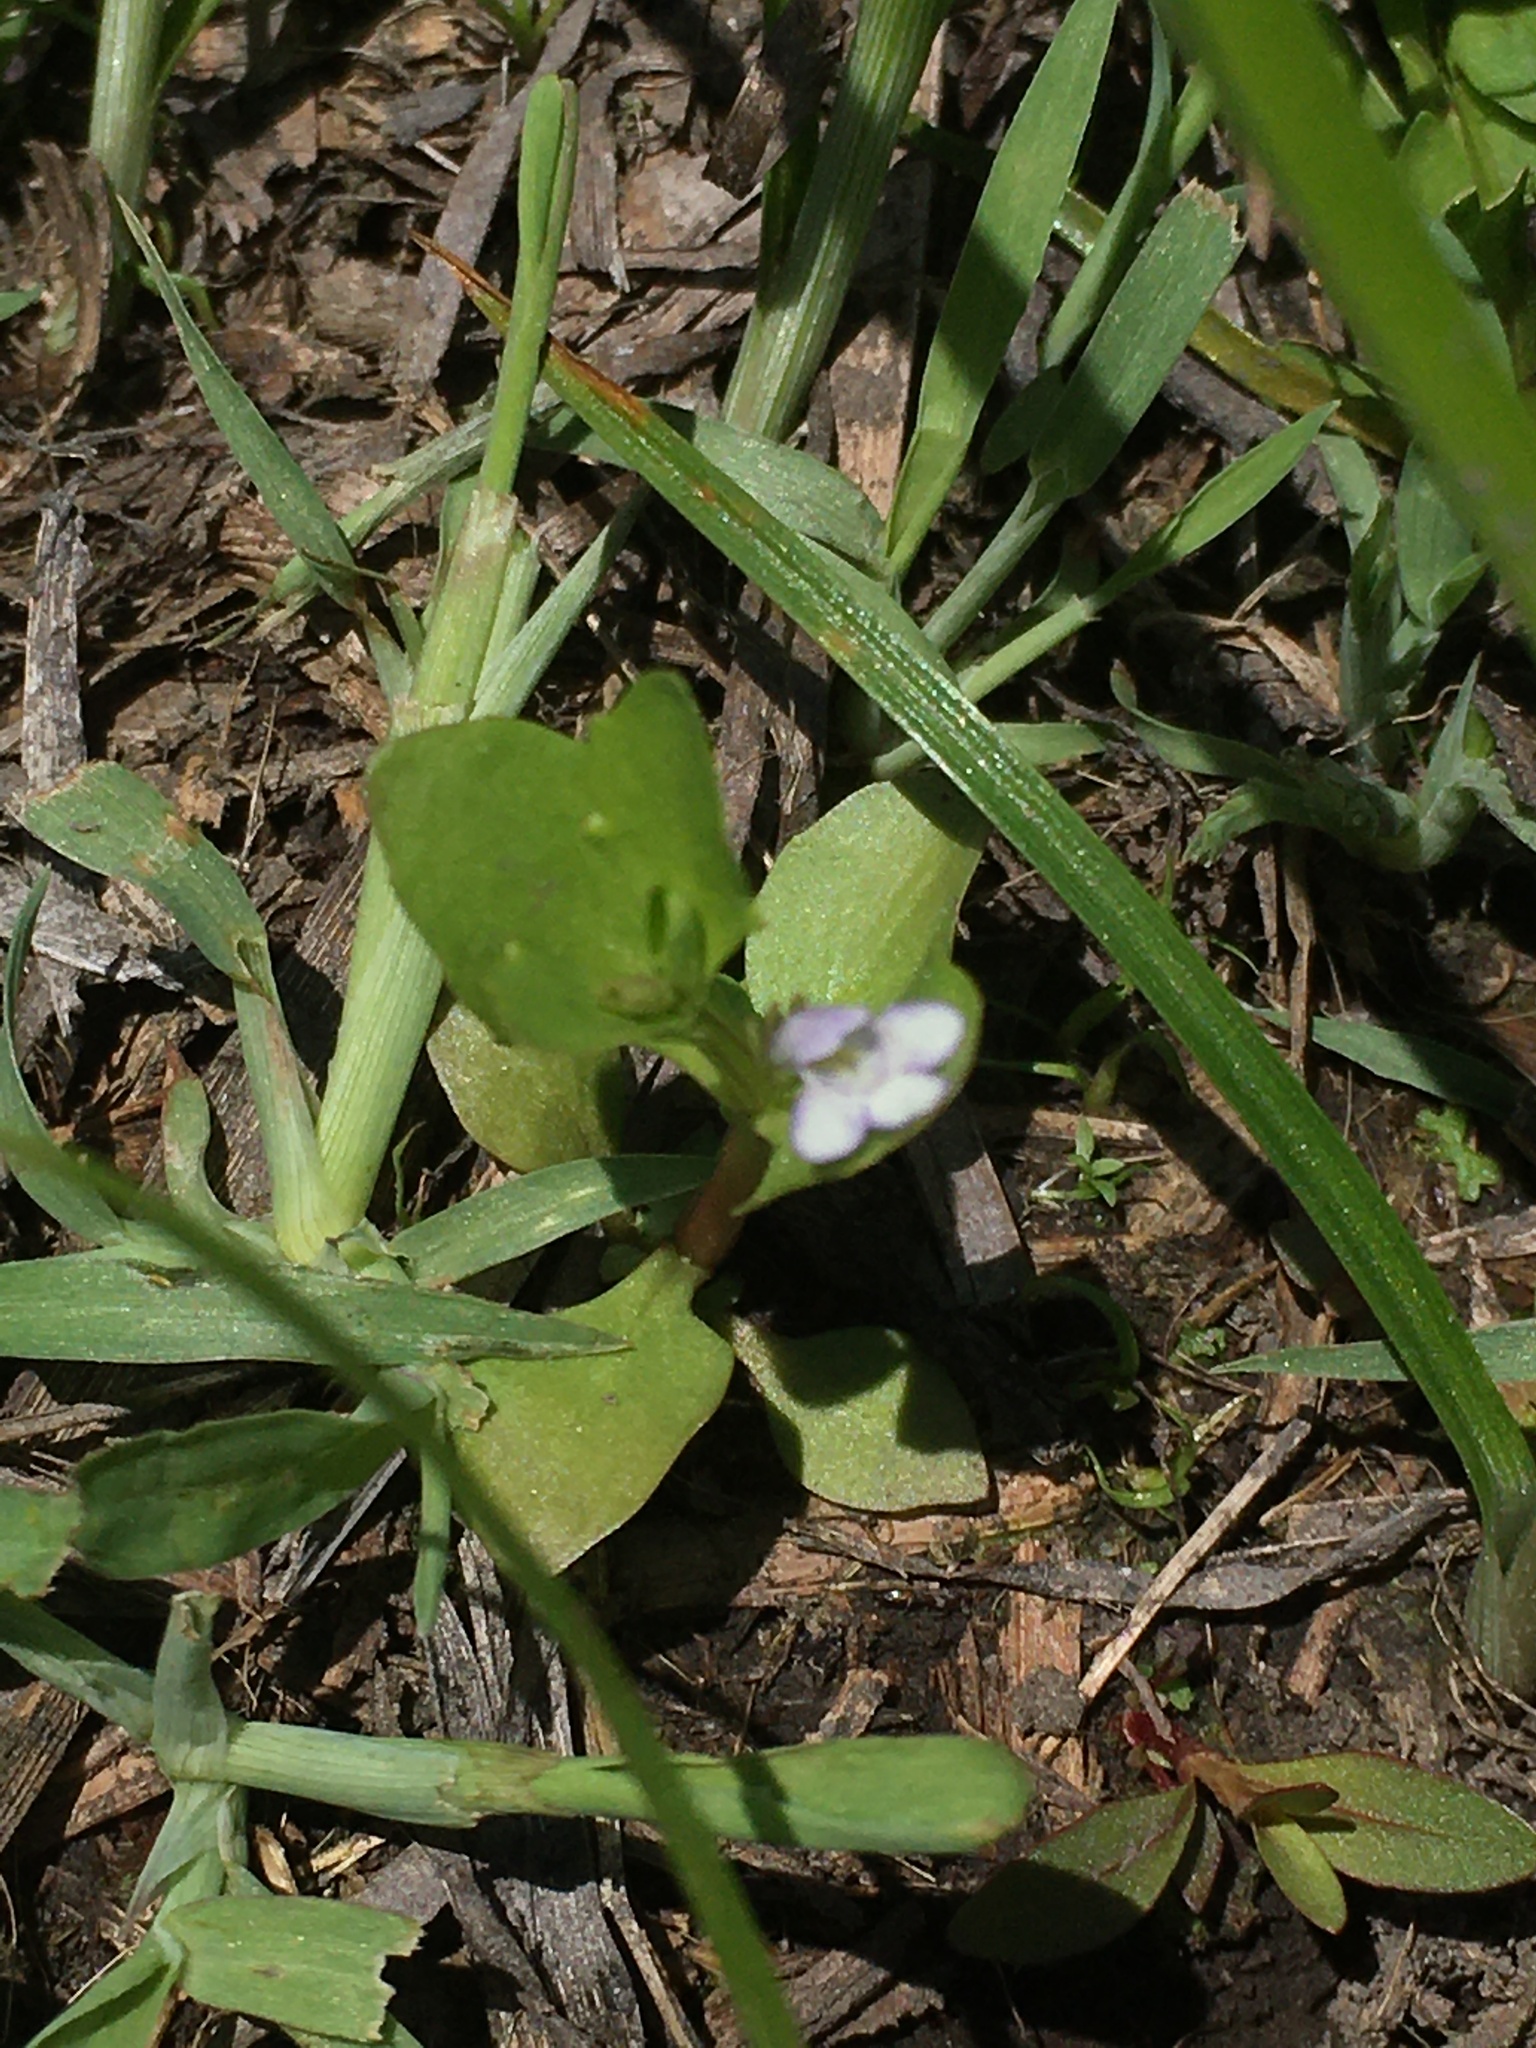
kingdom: Plantae
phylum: Tracheophyta
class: Magnoliopsida
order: Lamiales
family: Linderniaceae
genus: Lindernia
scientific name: Lindernia dubia
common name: Annual false pimpernel
